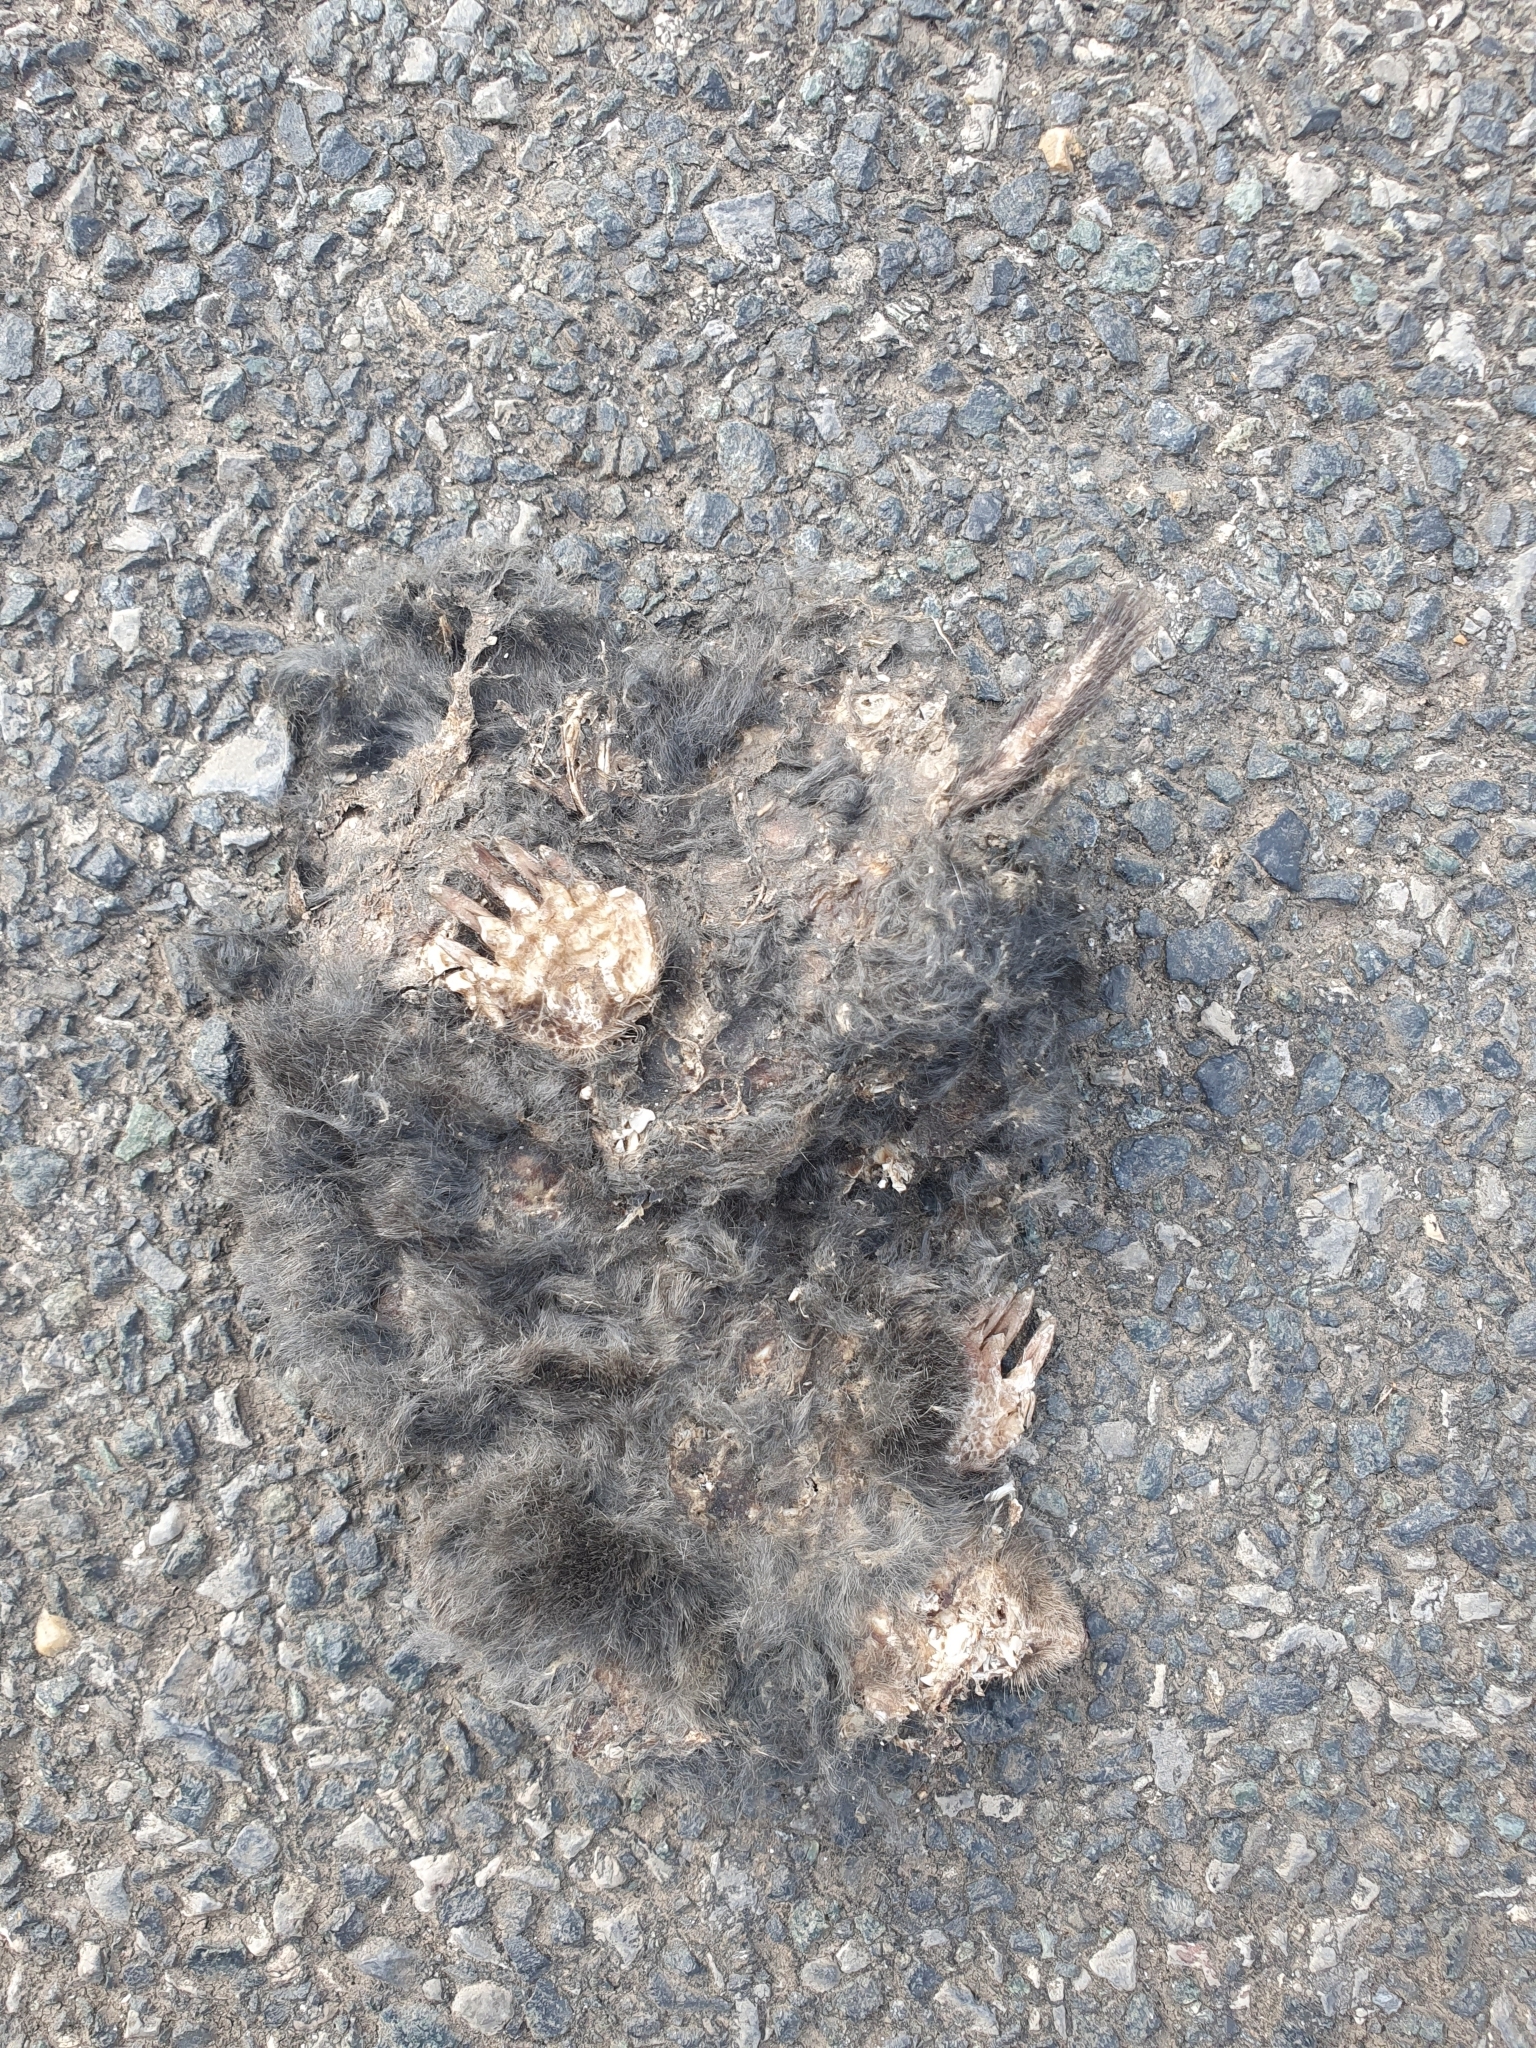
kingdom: Animalia
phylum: Chordata
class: Mammalia
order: Soricomorpha
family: Talpidae
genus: Talpa
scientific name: Talpa occidentalis
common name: Iberian mole
